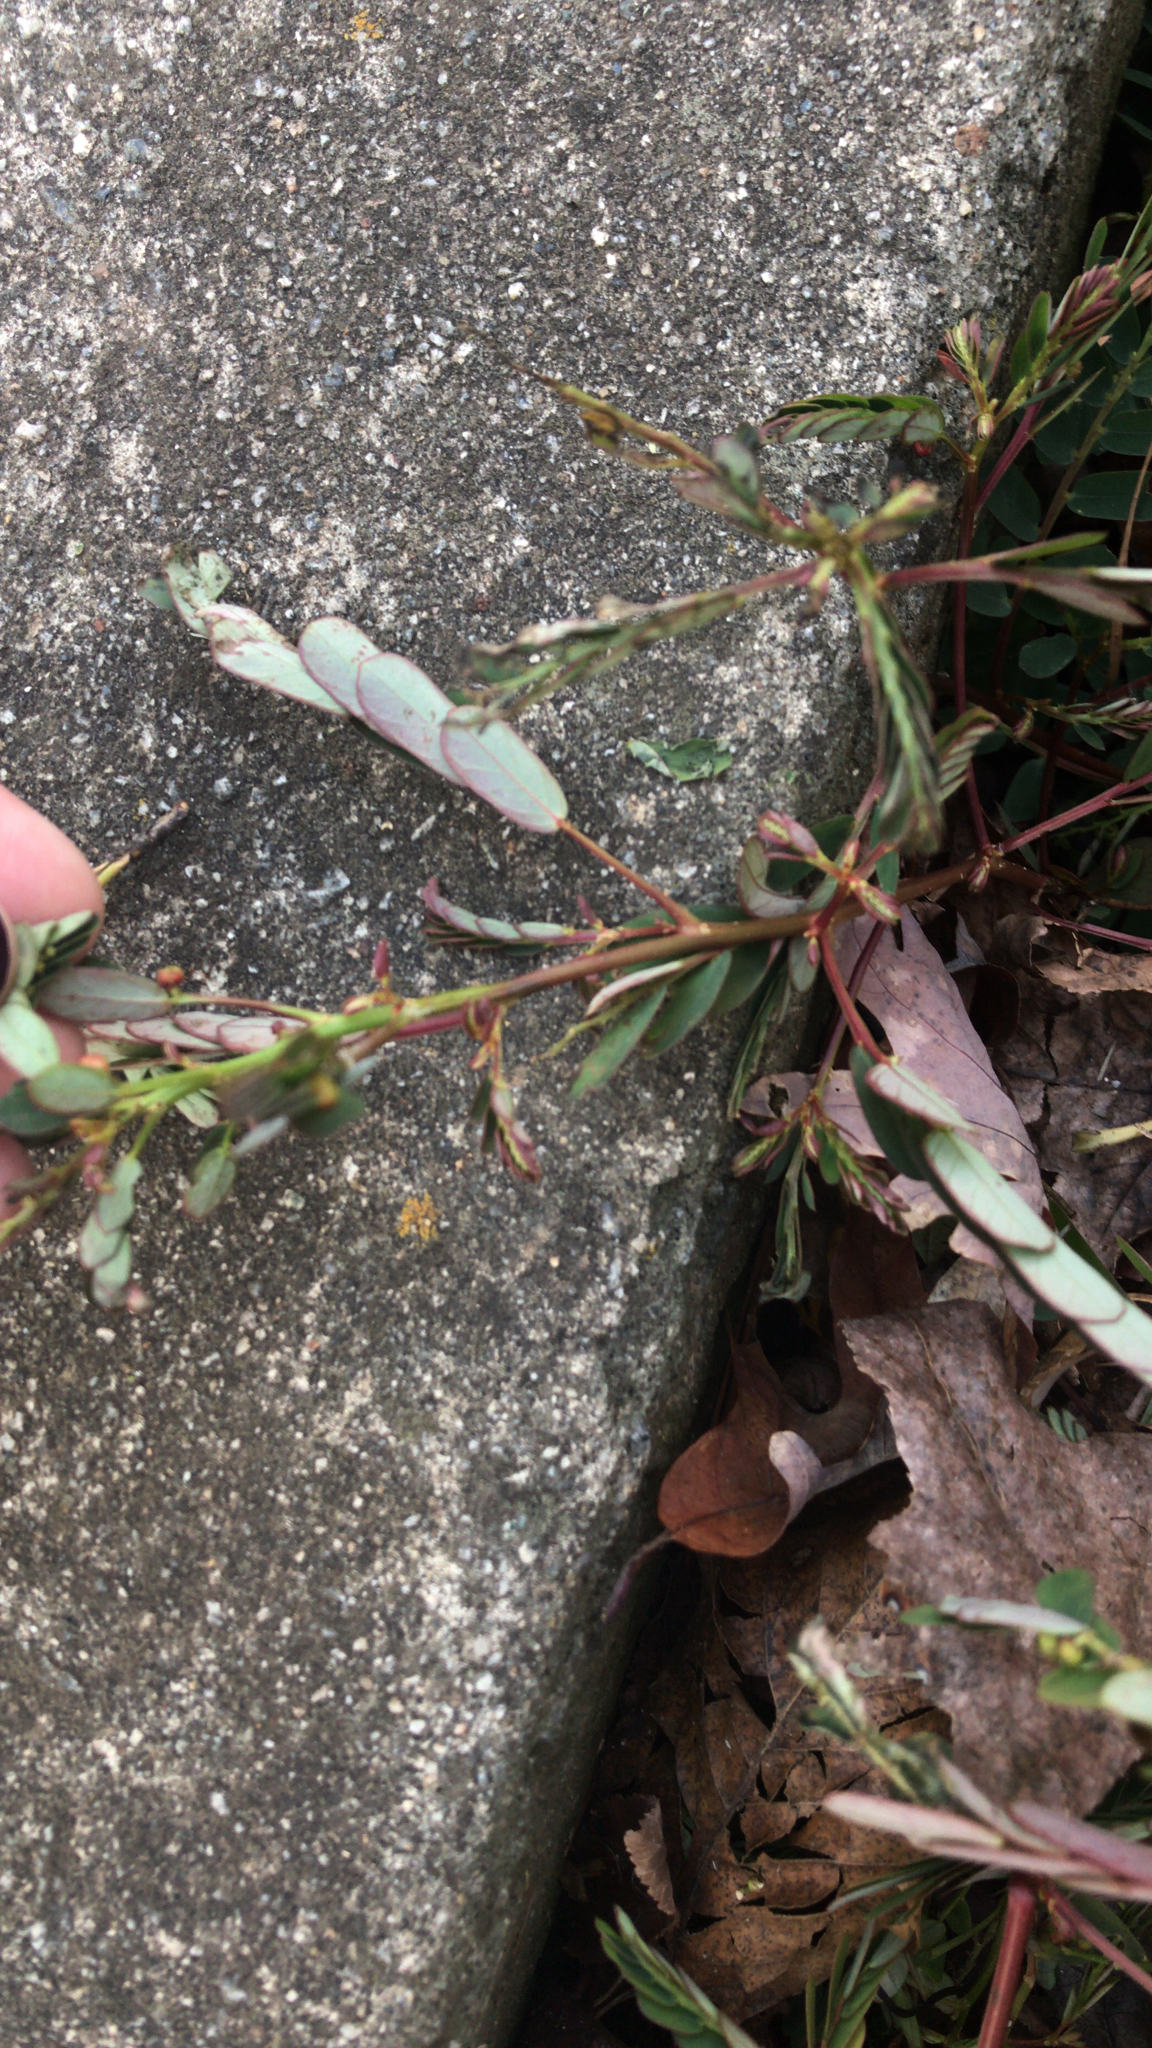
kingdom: Plantae
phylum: Tracheophyta
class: Magnoliopsida
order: Malpighiales
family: Phyllanthaceae
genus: Phyllanthus
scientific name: Phyllanthus urinaria
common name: Chamber bitter
